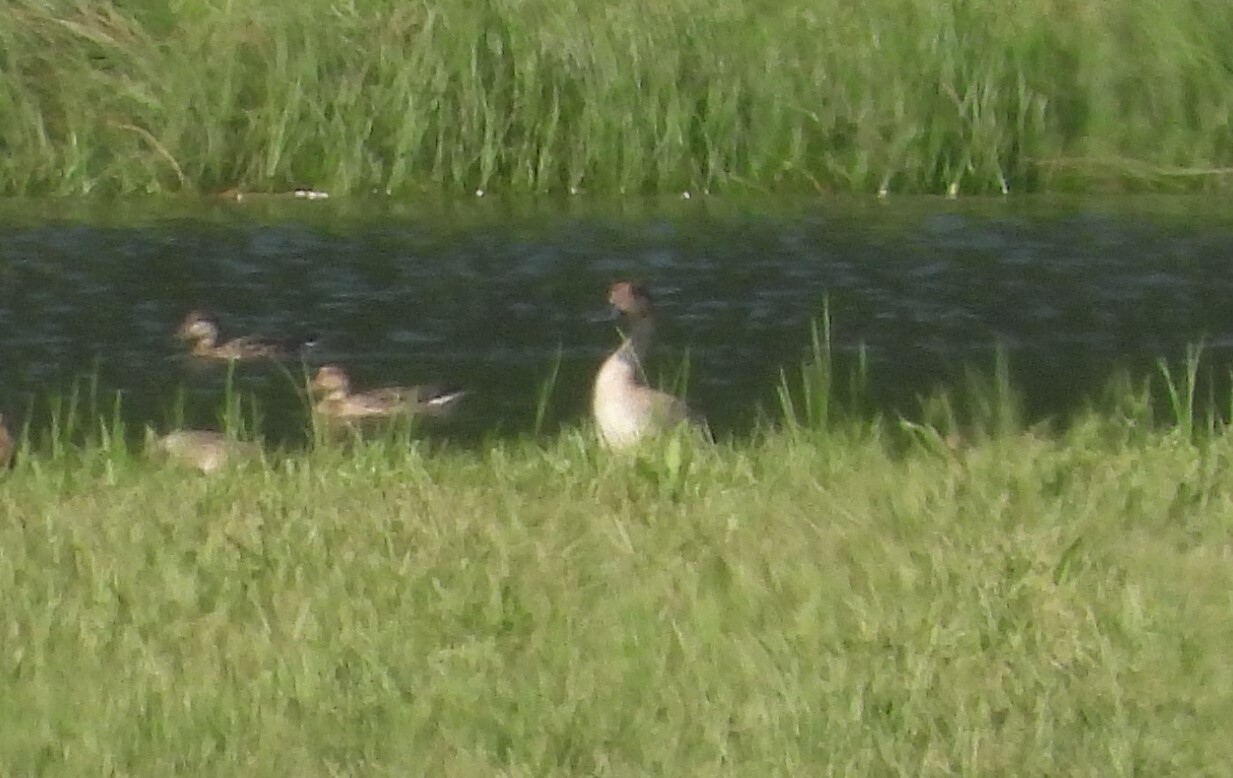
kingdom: Animalia
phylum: Chordata
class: Aves
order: Anseriformes
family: Anatidae
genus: Anas
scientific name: Anas acuta
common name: Northern pintail
